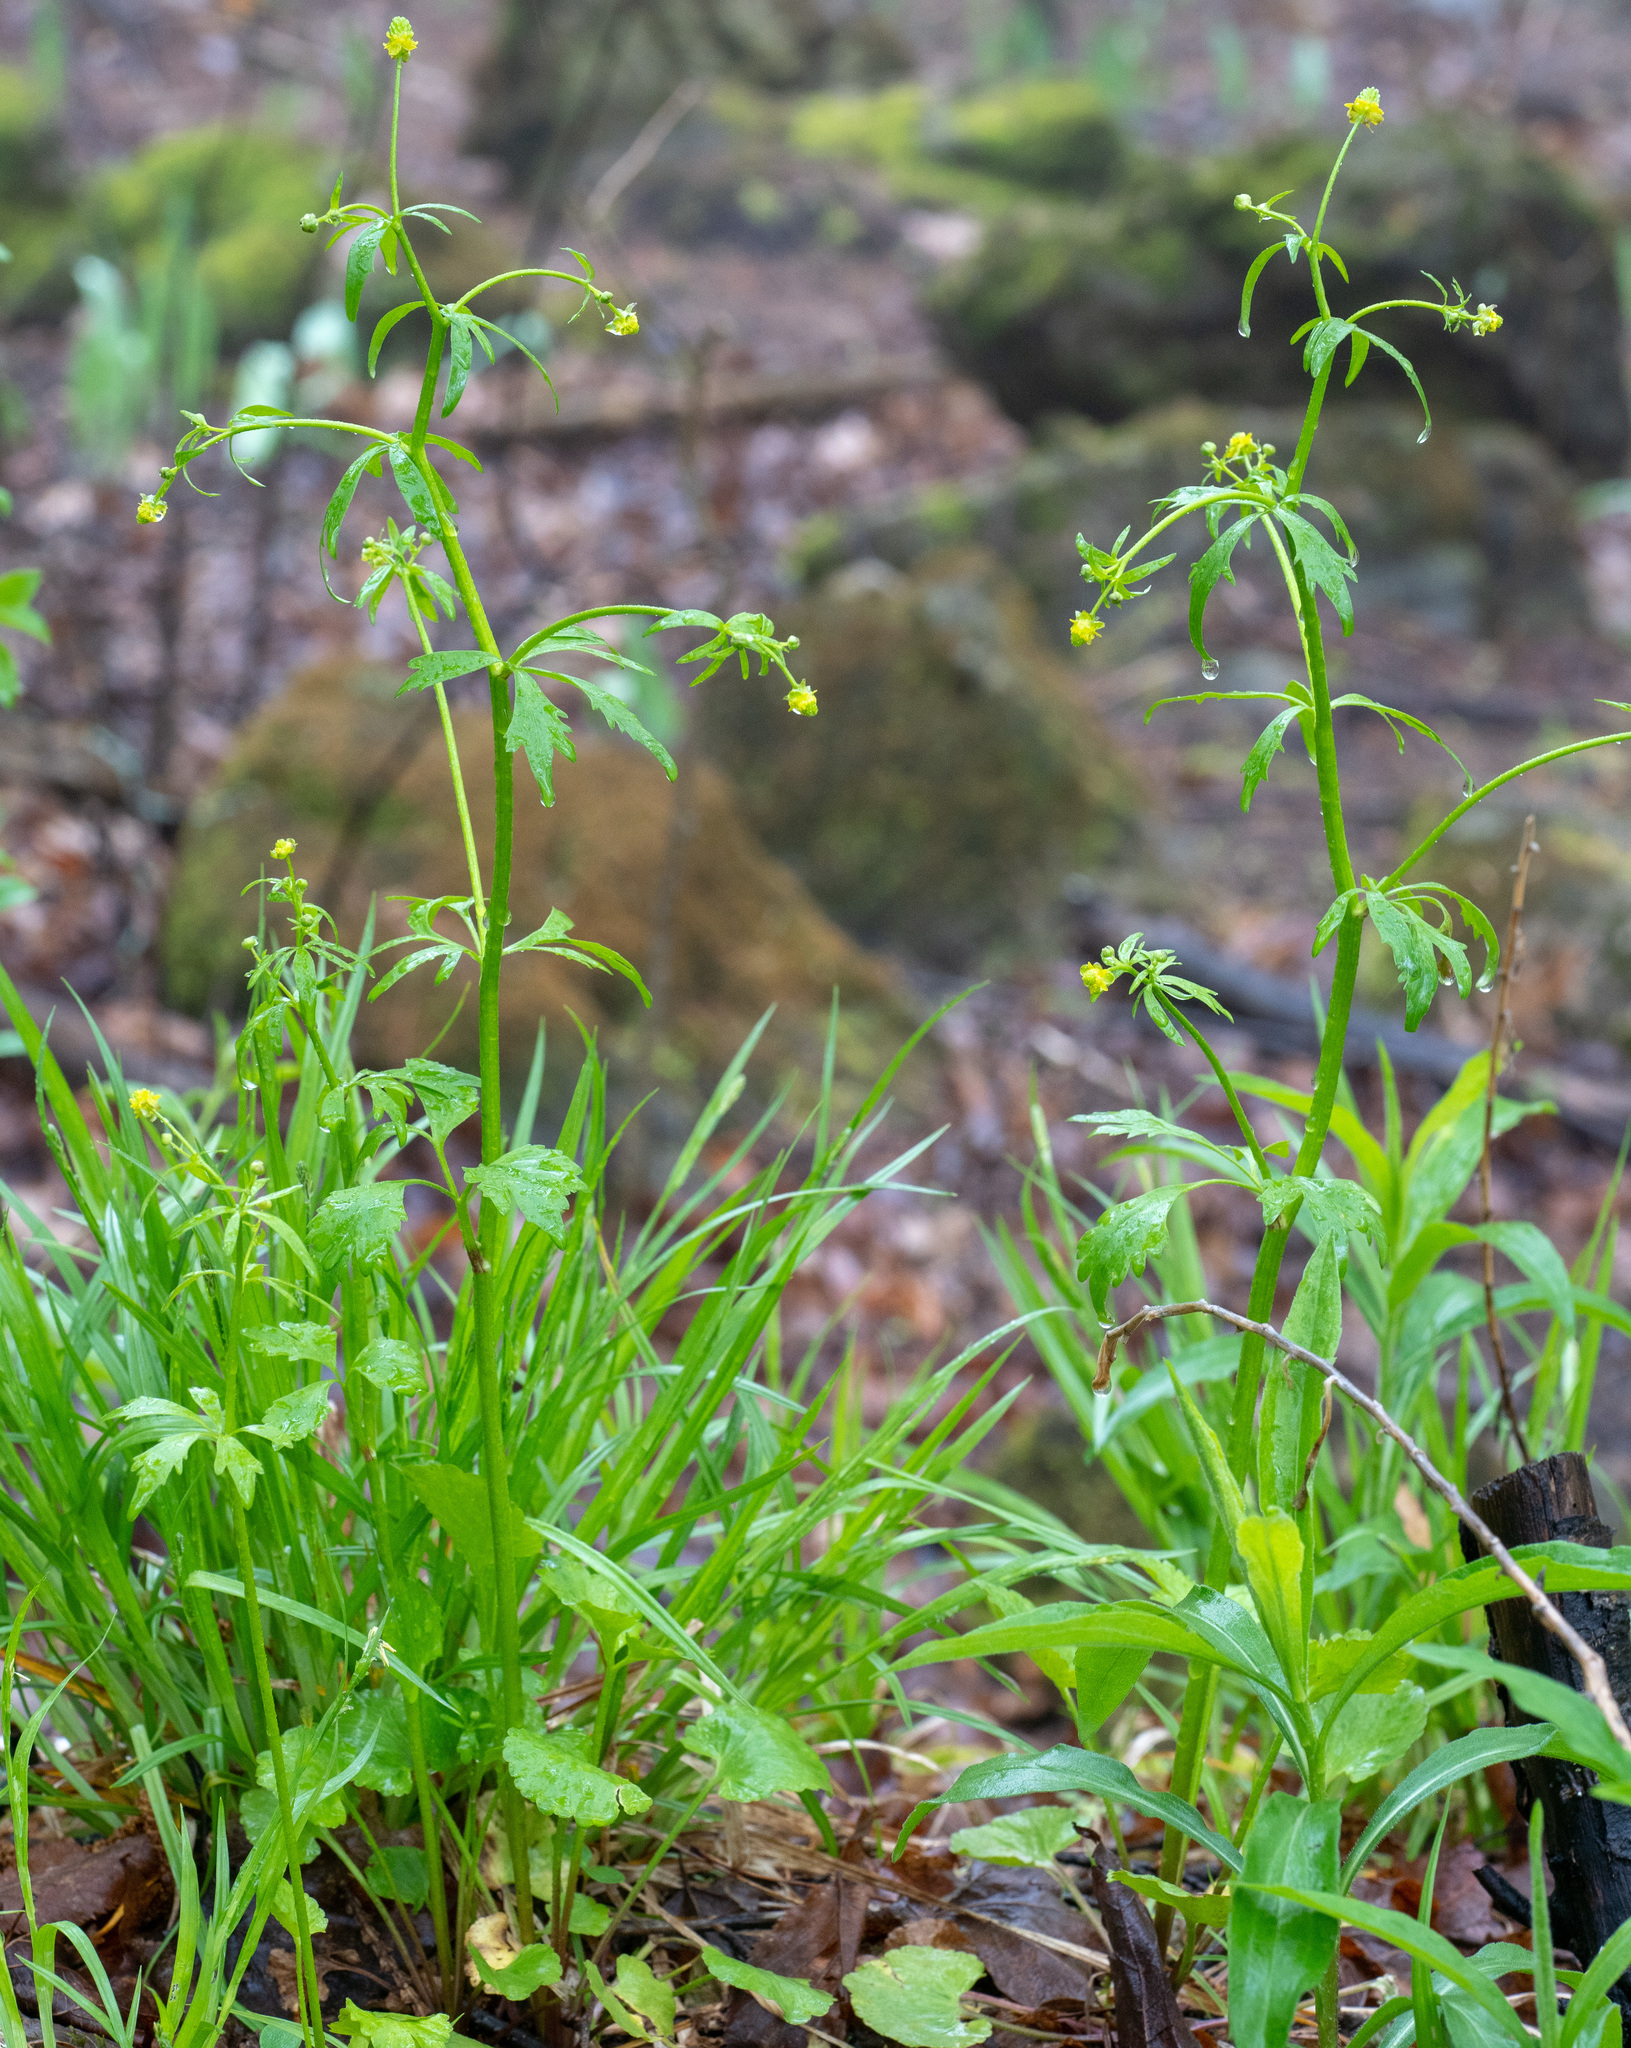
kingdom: Plantae
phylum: Tracheophyta
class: Magnoliopsida
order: Ranunculales
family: Ranunculaceae
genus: Ranunculus
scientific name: Ranunculus abortivus
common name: Early wood buttercup
